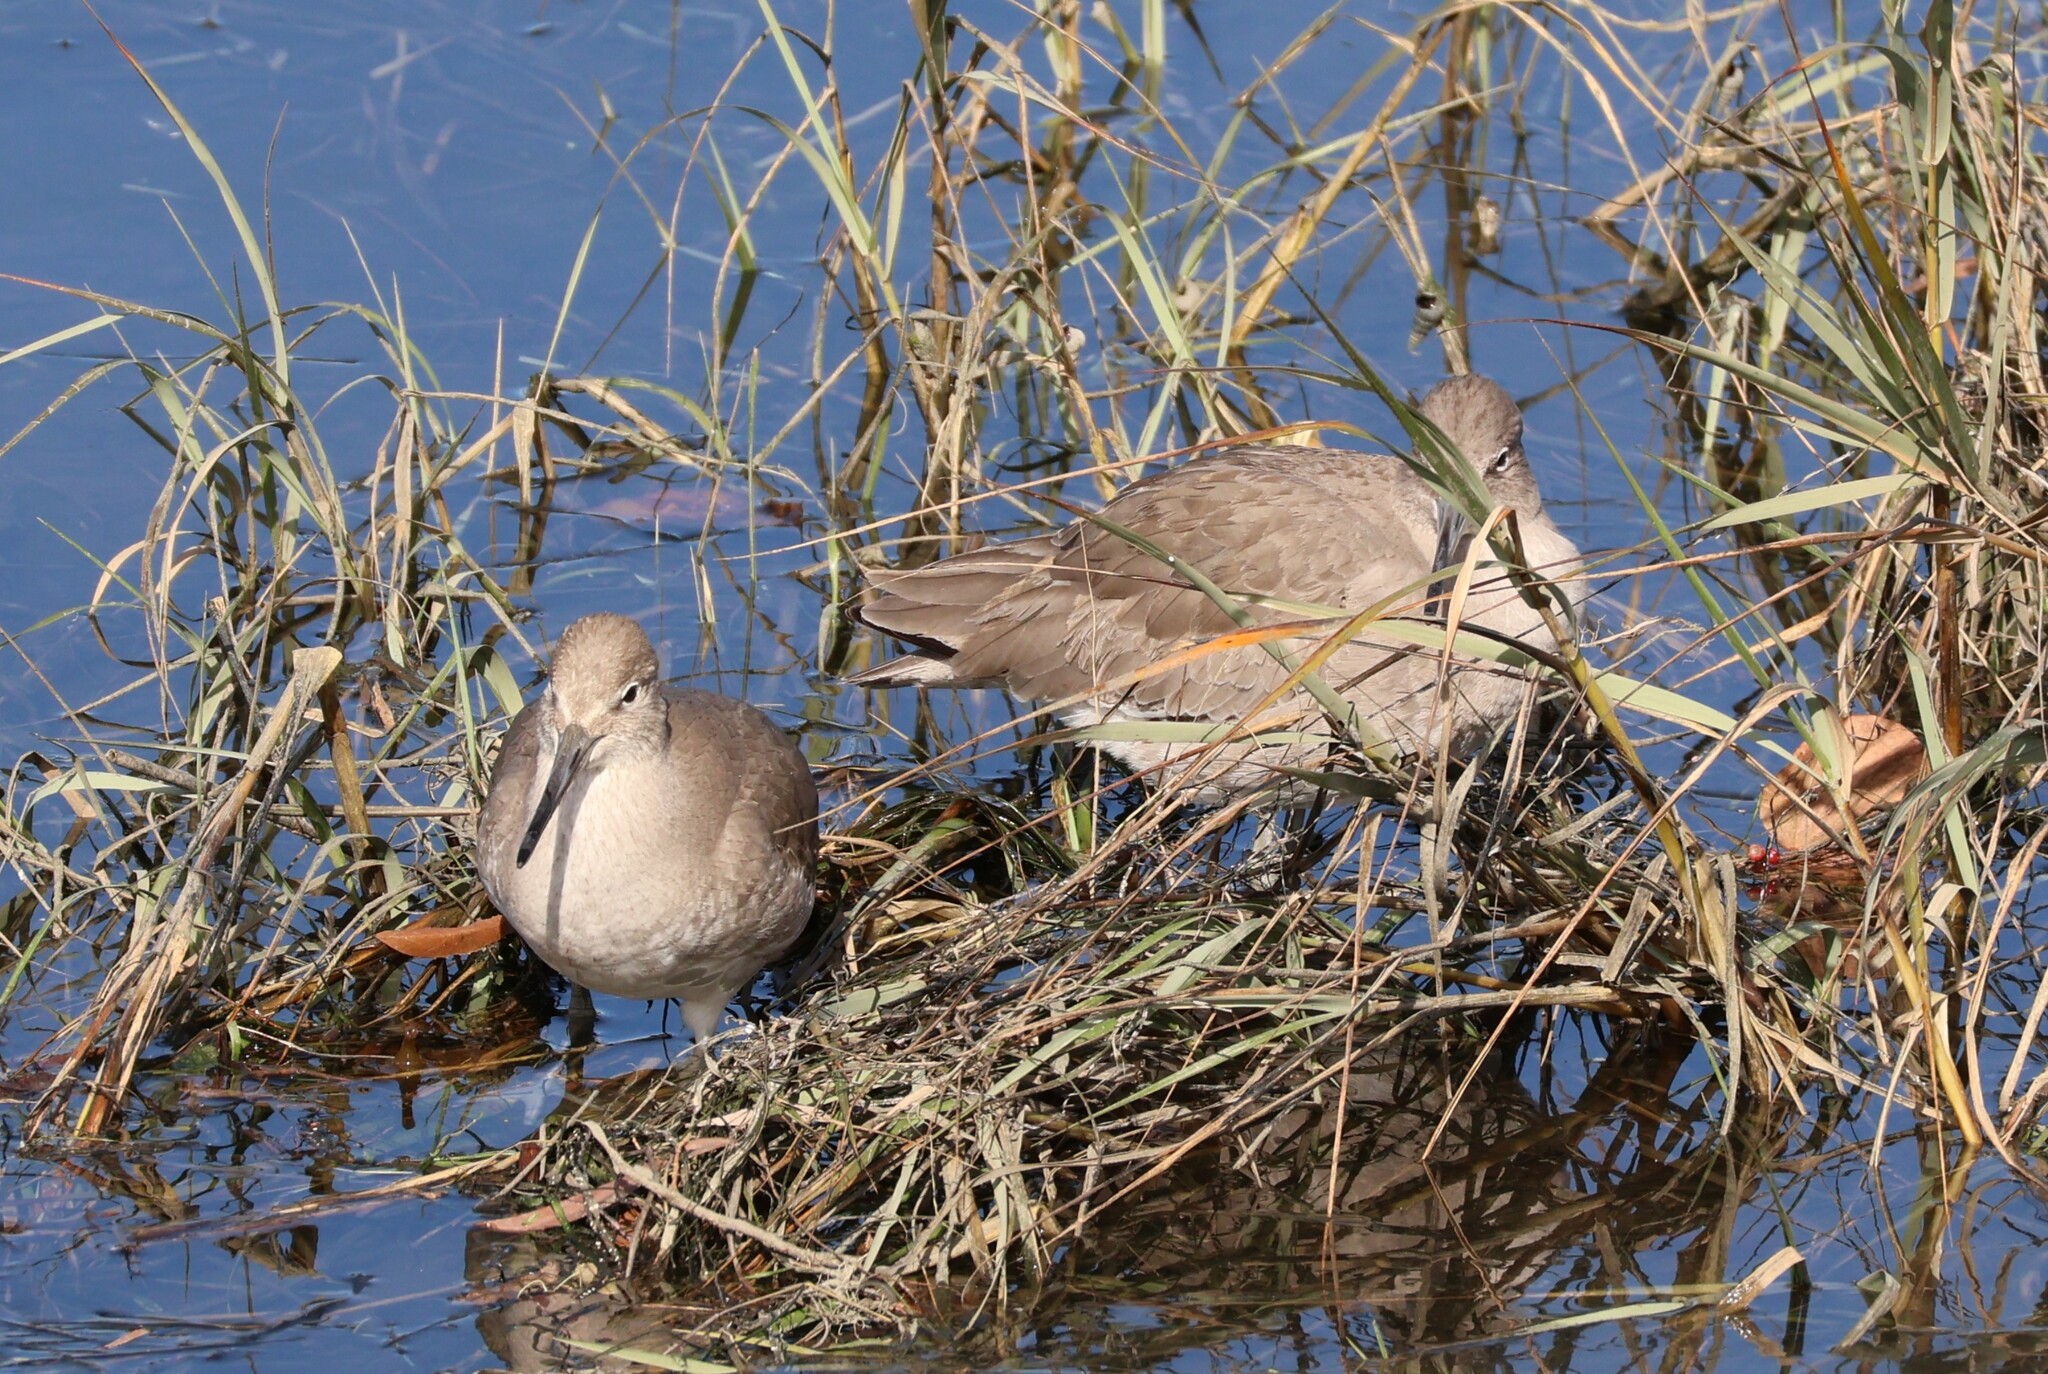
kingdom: Animalia
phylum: Chordata
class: Aves
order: Charadriiformes
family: Scolopacidae
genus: Tringa
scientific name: Tringa semipalmata
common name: Willet
